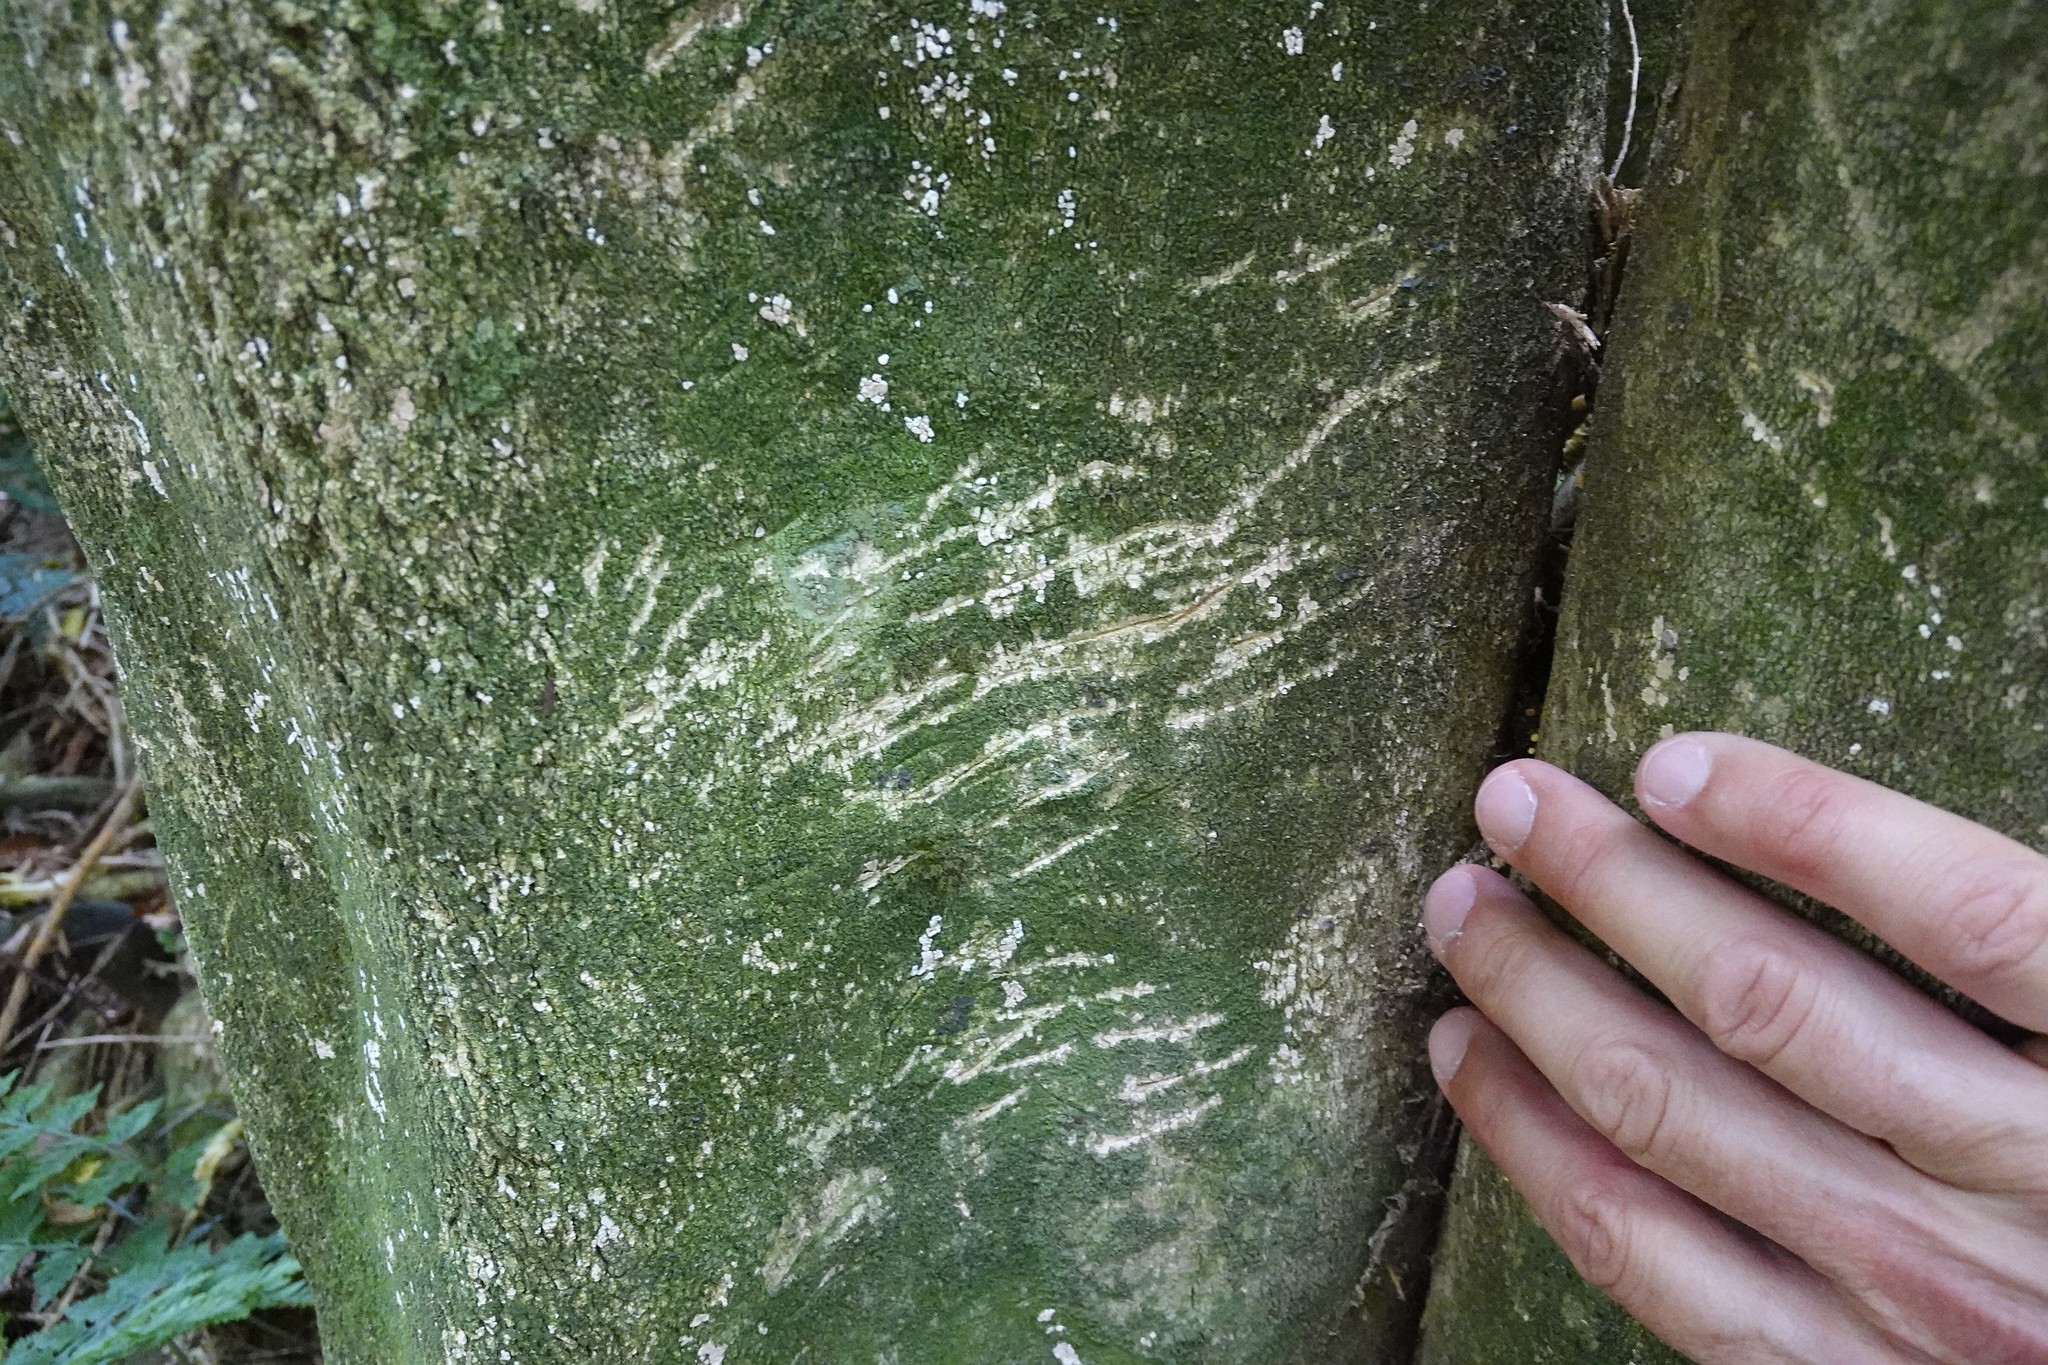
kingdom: Animalia
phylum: Chordata
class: Mammalia
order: Diprotodontia
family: Phalangeridae
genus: Trichosurus
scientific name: Trichosurus vulpecula
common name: Common brushtail
